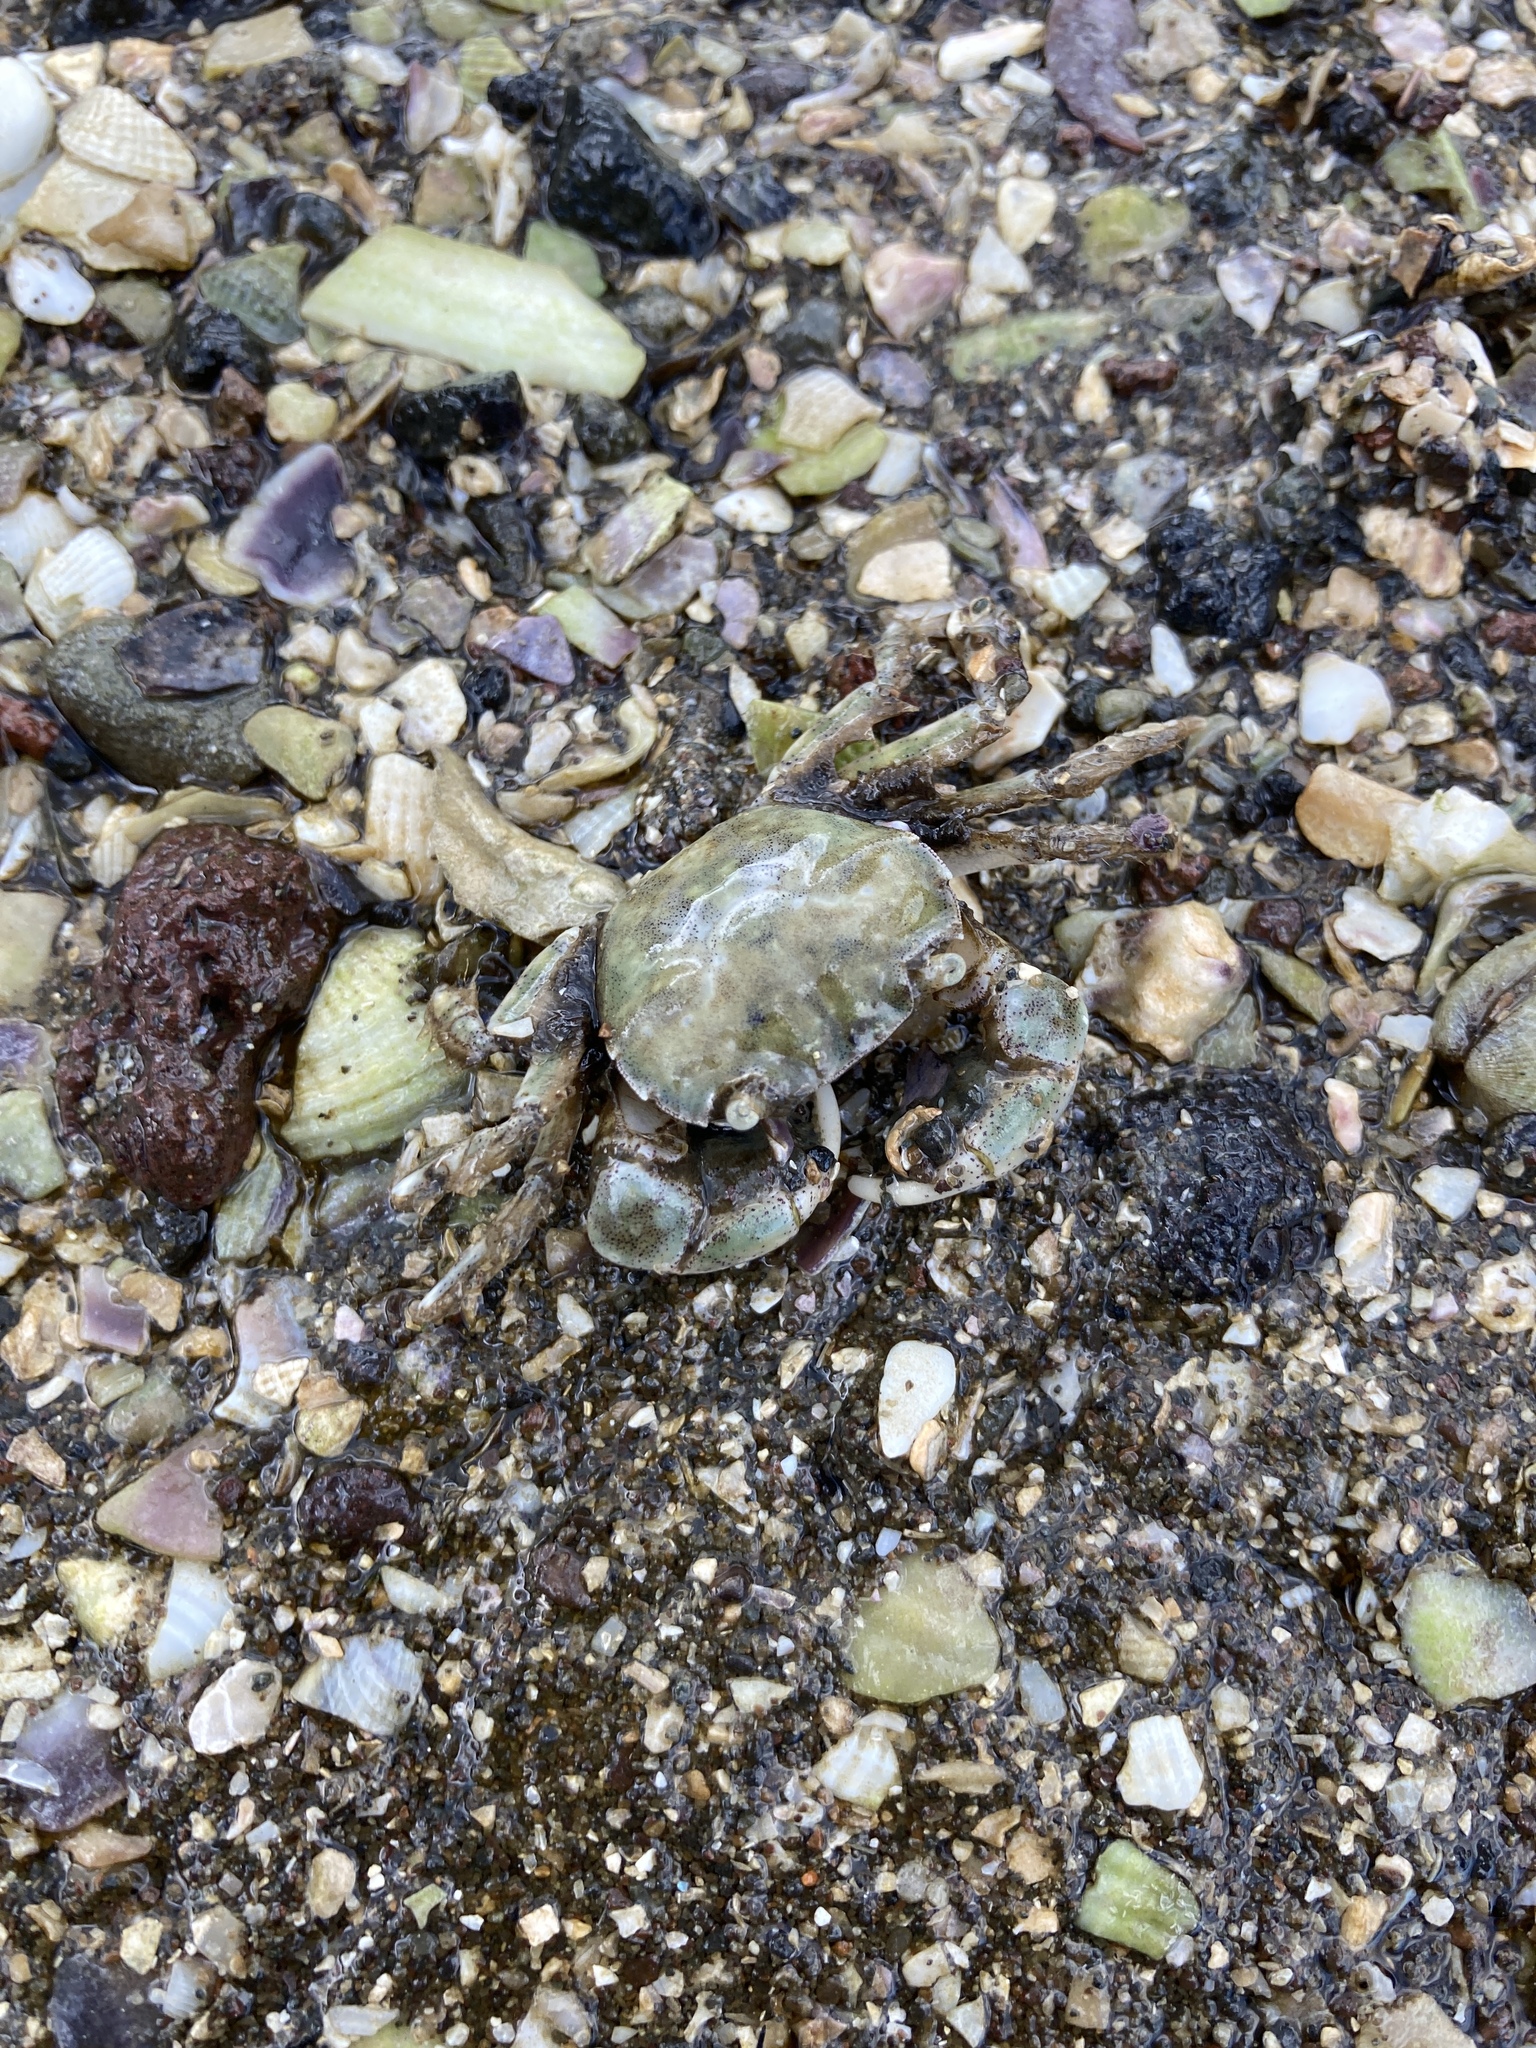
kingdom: Animalia
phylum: Arthropoda
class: Malacostraca
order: Decapoda
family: Varunidae
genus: Hemigrapsus
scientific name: Hemigrapsus crenulatus
